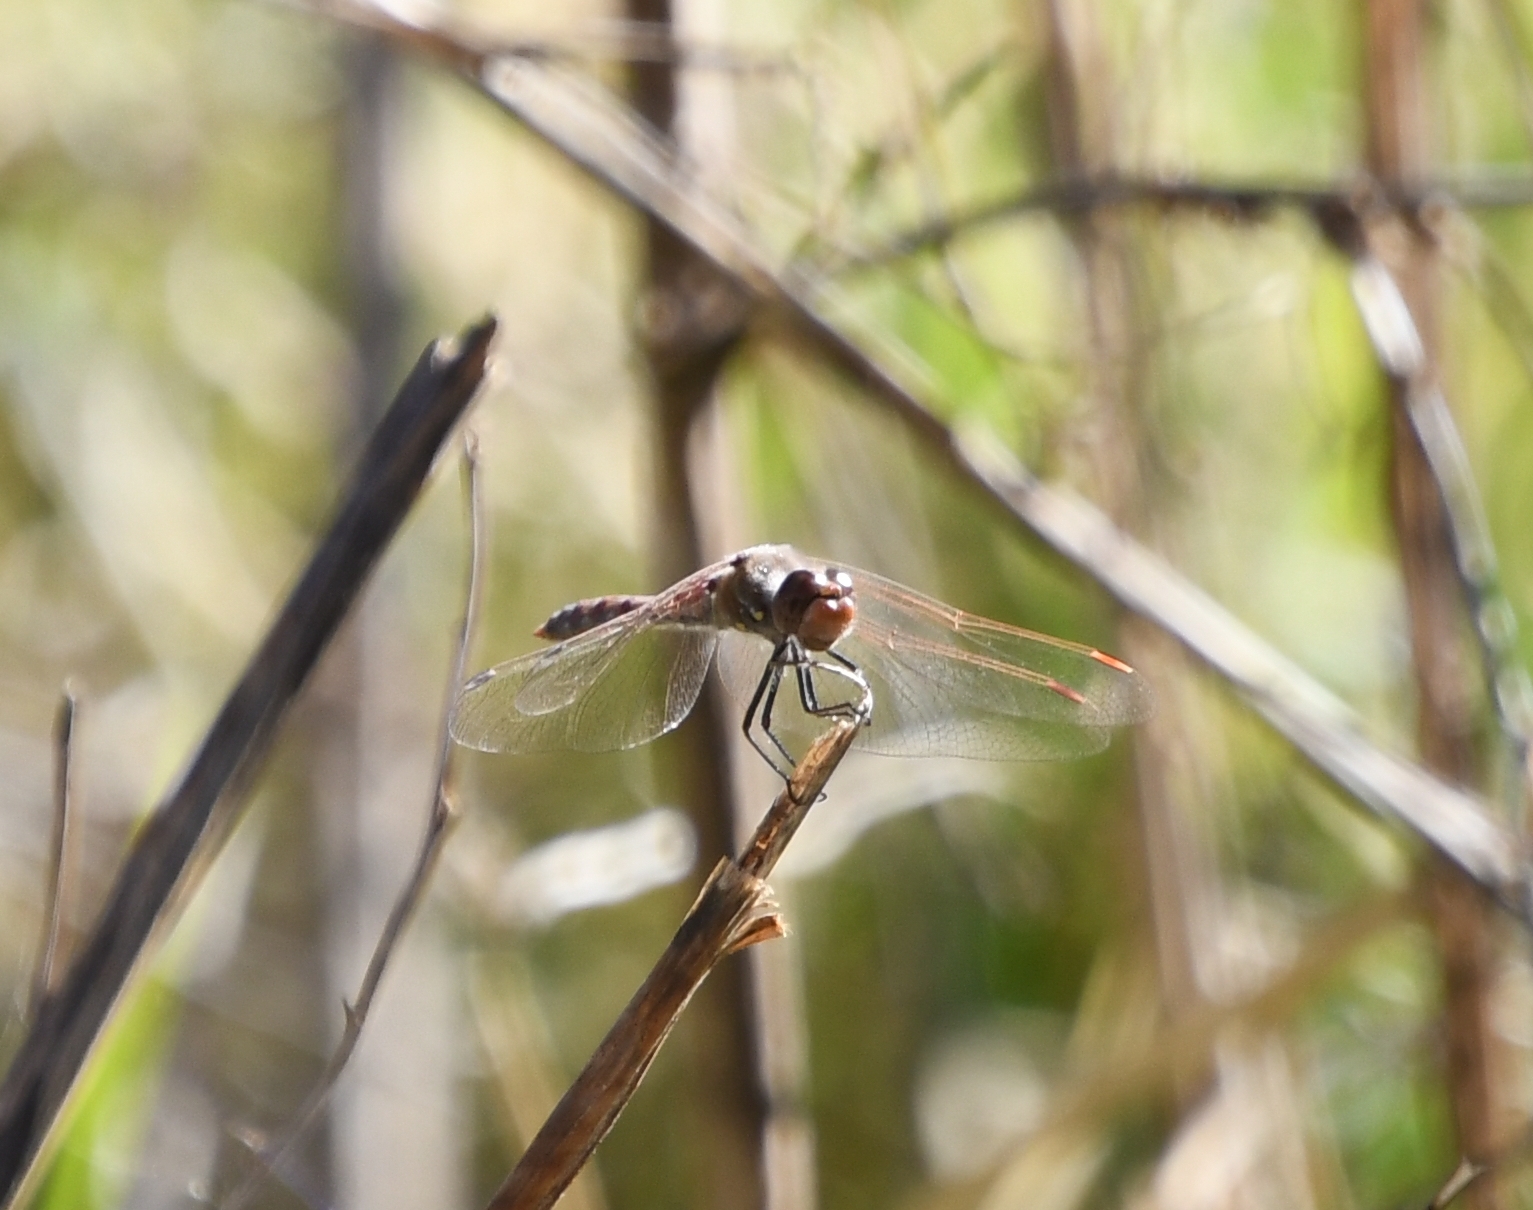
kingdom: Animalia
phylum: Arthropoda
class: Insecta
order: Odonata
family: Libellulidae
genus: Sympetrum
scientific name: Sympetrum corruptum
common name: Variegated meadowhawk
